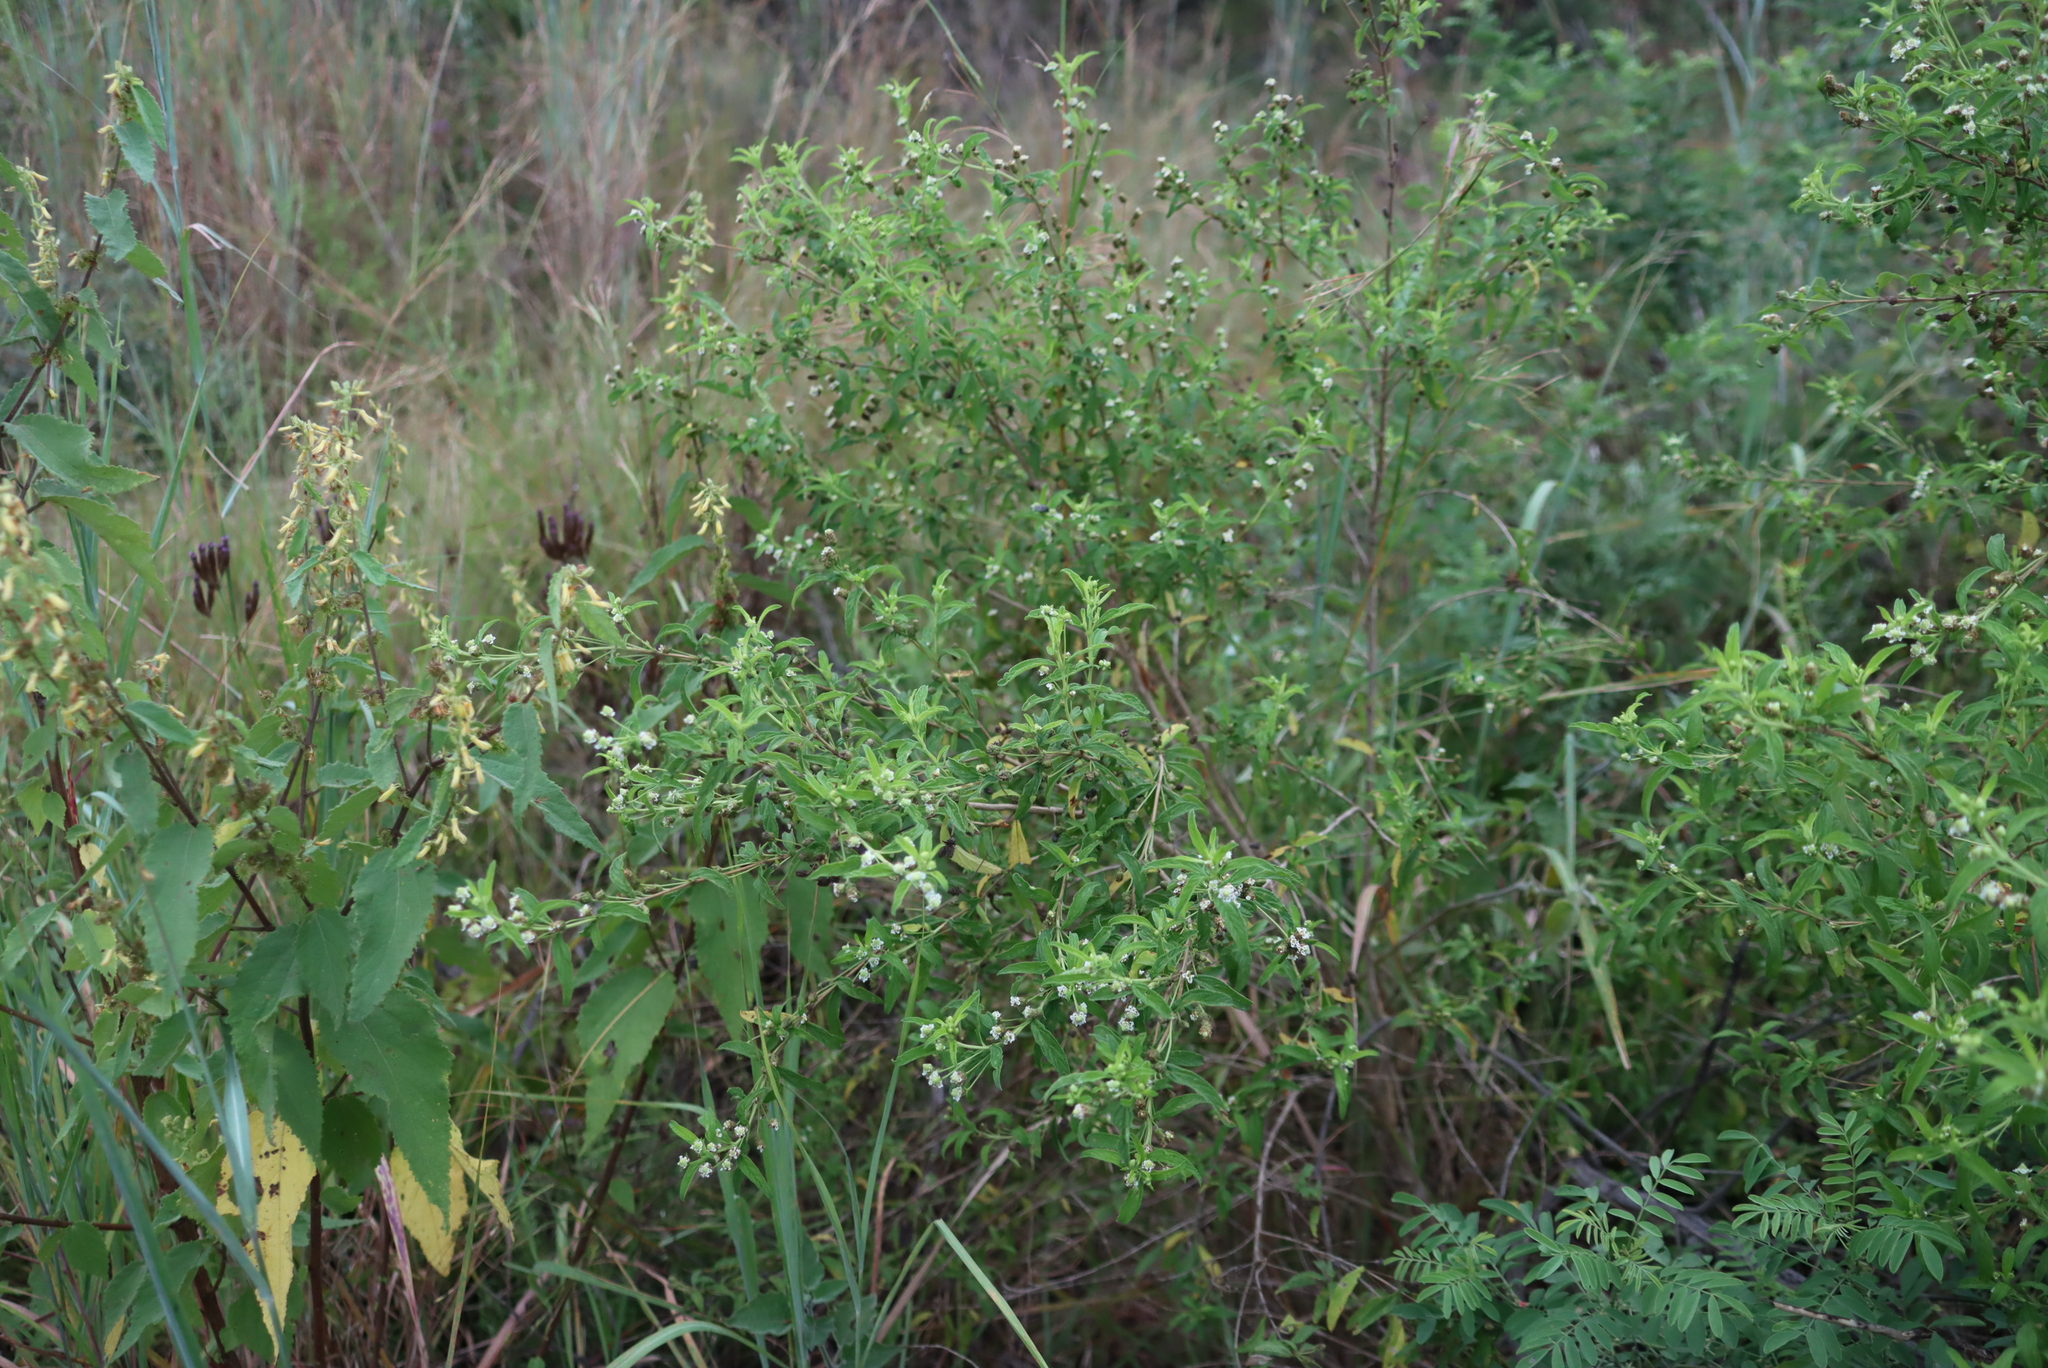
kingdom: Plantae
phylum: Tracheophyta
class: Magnoliopsida
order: Lamiales
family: Verbenaceae
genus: Lippia
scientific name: Lippia javanica
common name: Lemonbush
